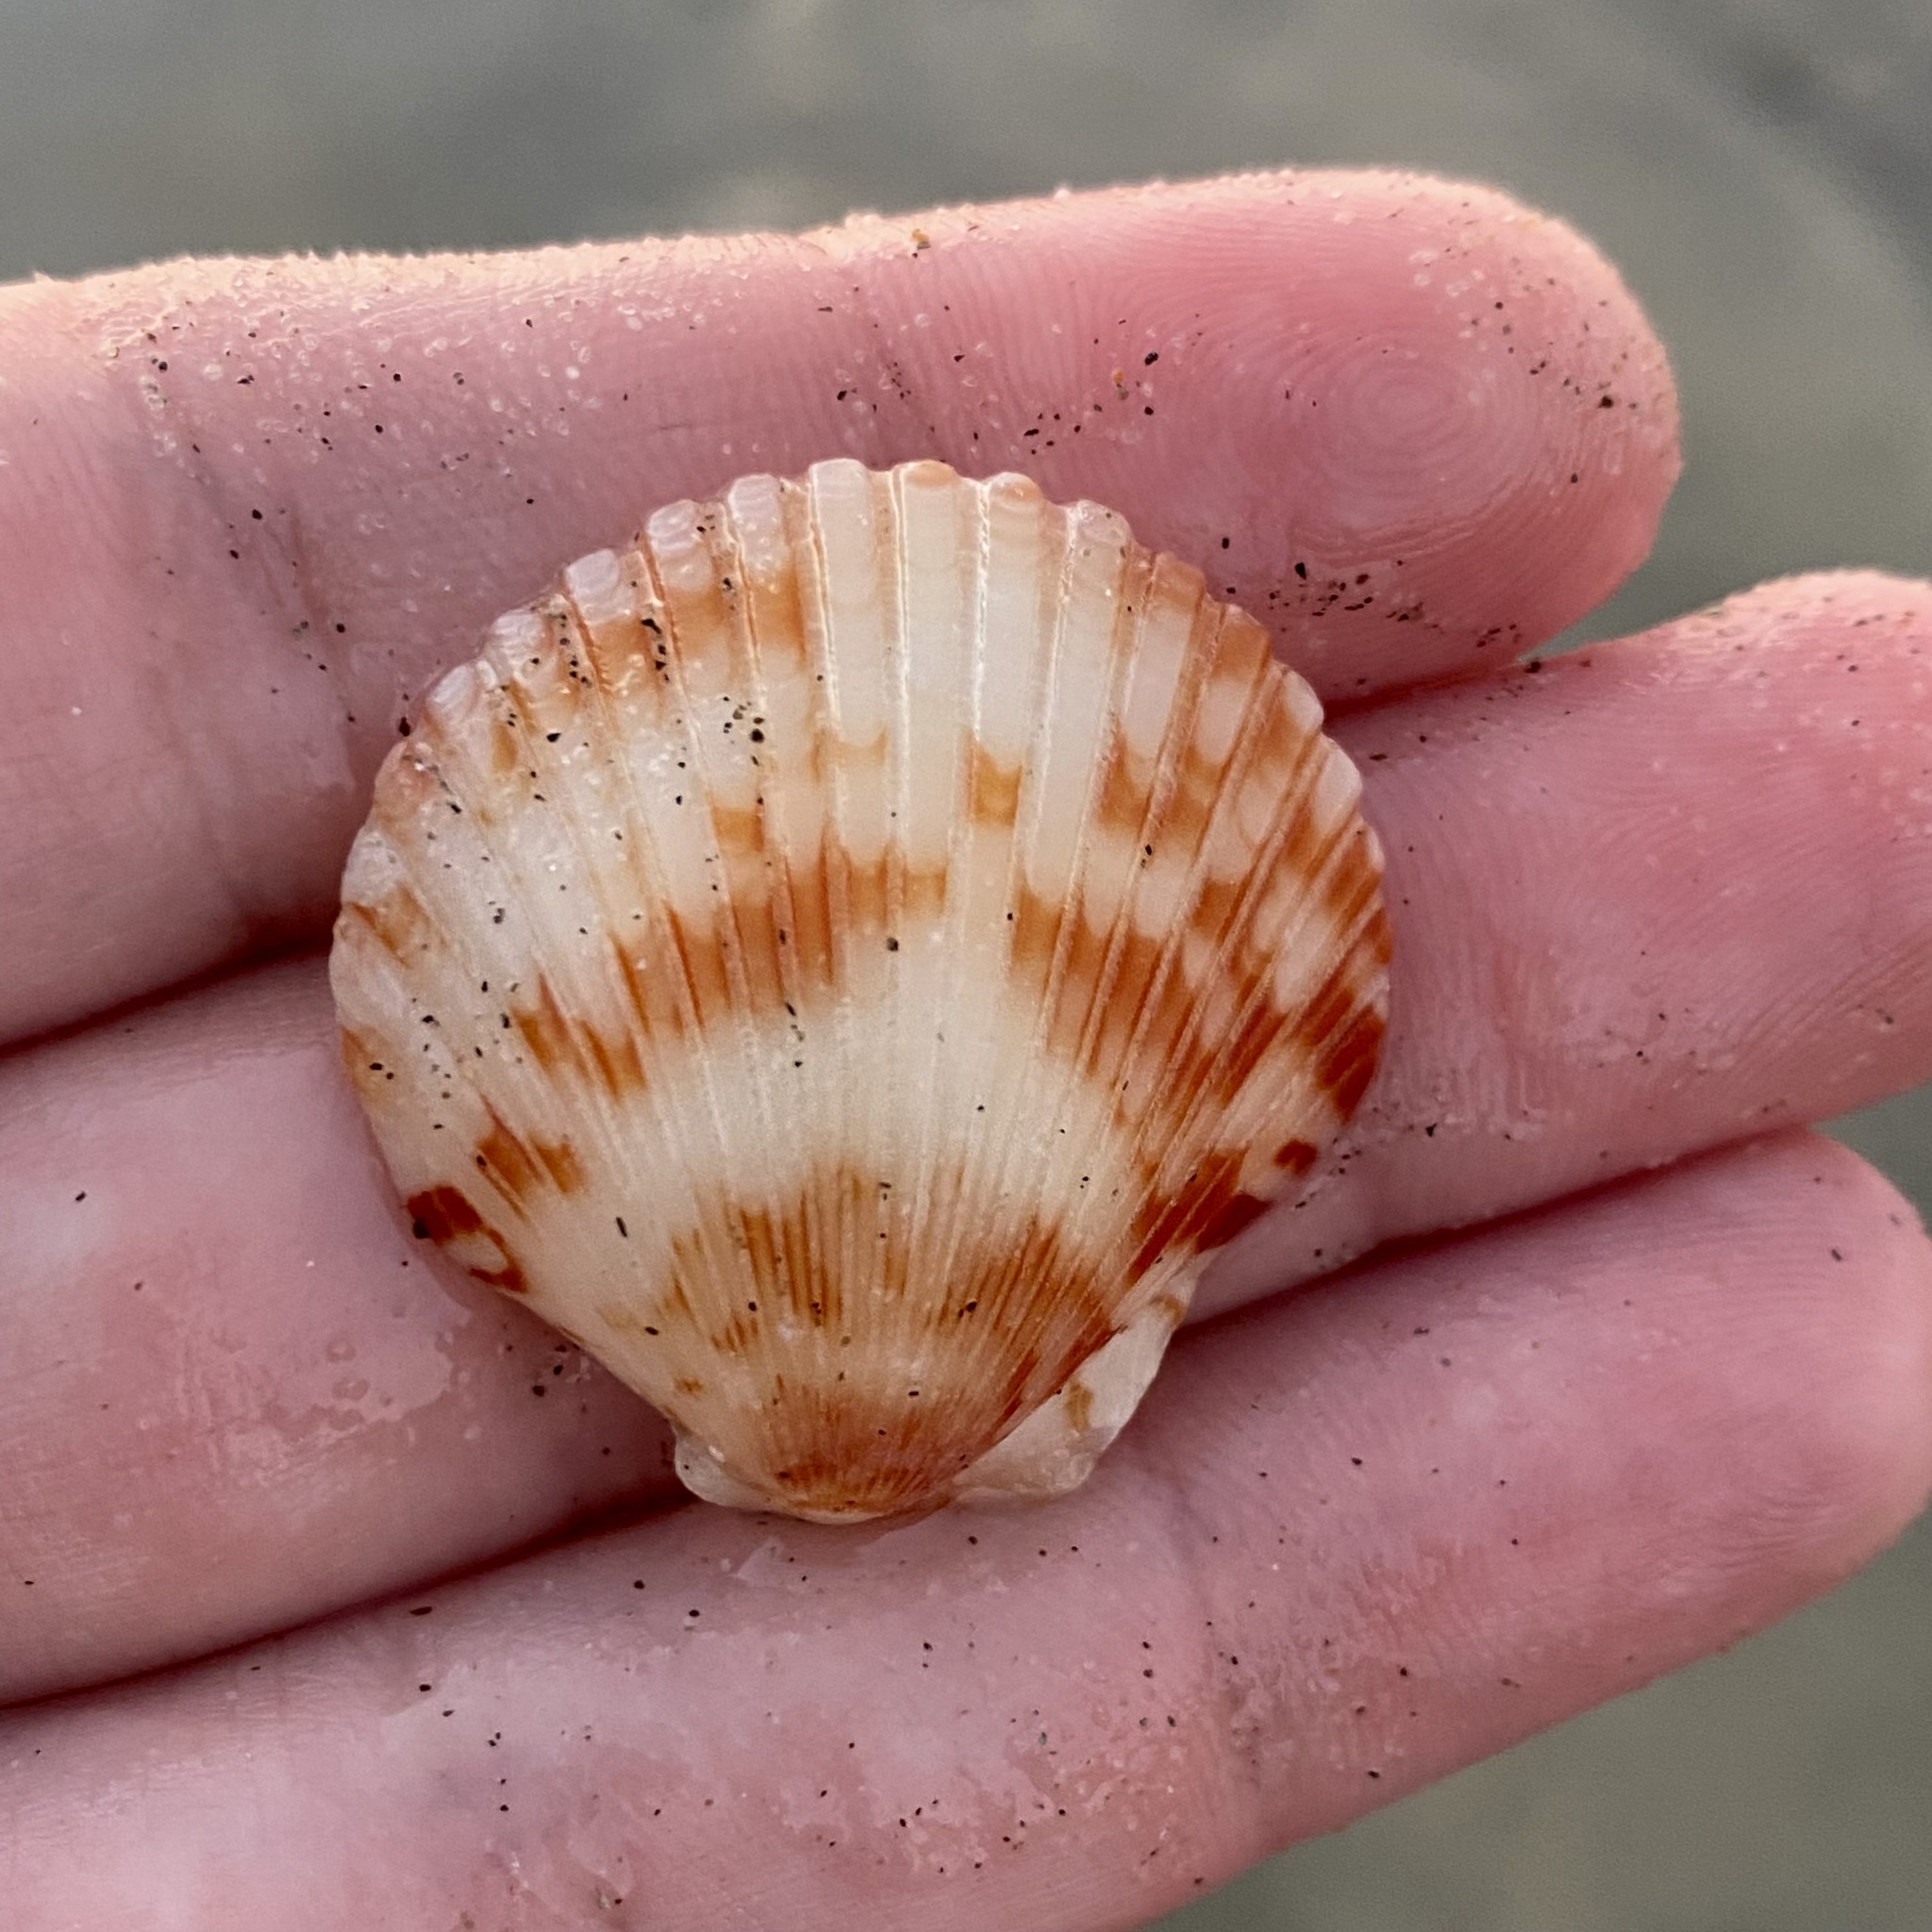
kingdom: Animalia
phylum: Mollusca
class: Bivalvia
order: Pectinida
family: Pectinidae
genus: Argopecten
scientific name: Argopecten ventricosus
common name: Catarina scallop
